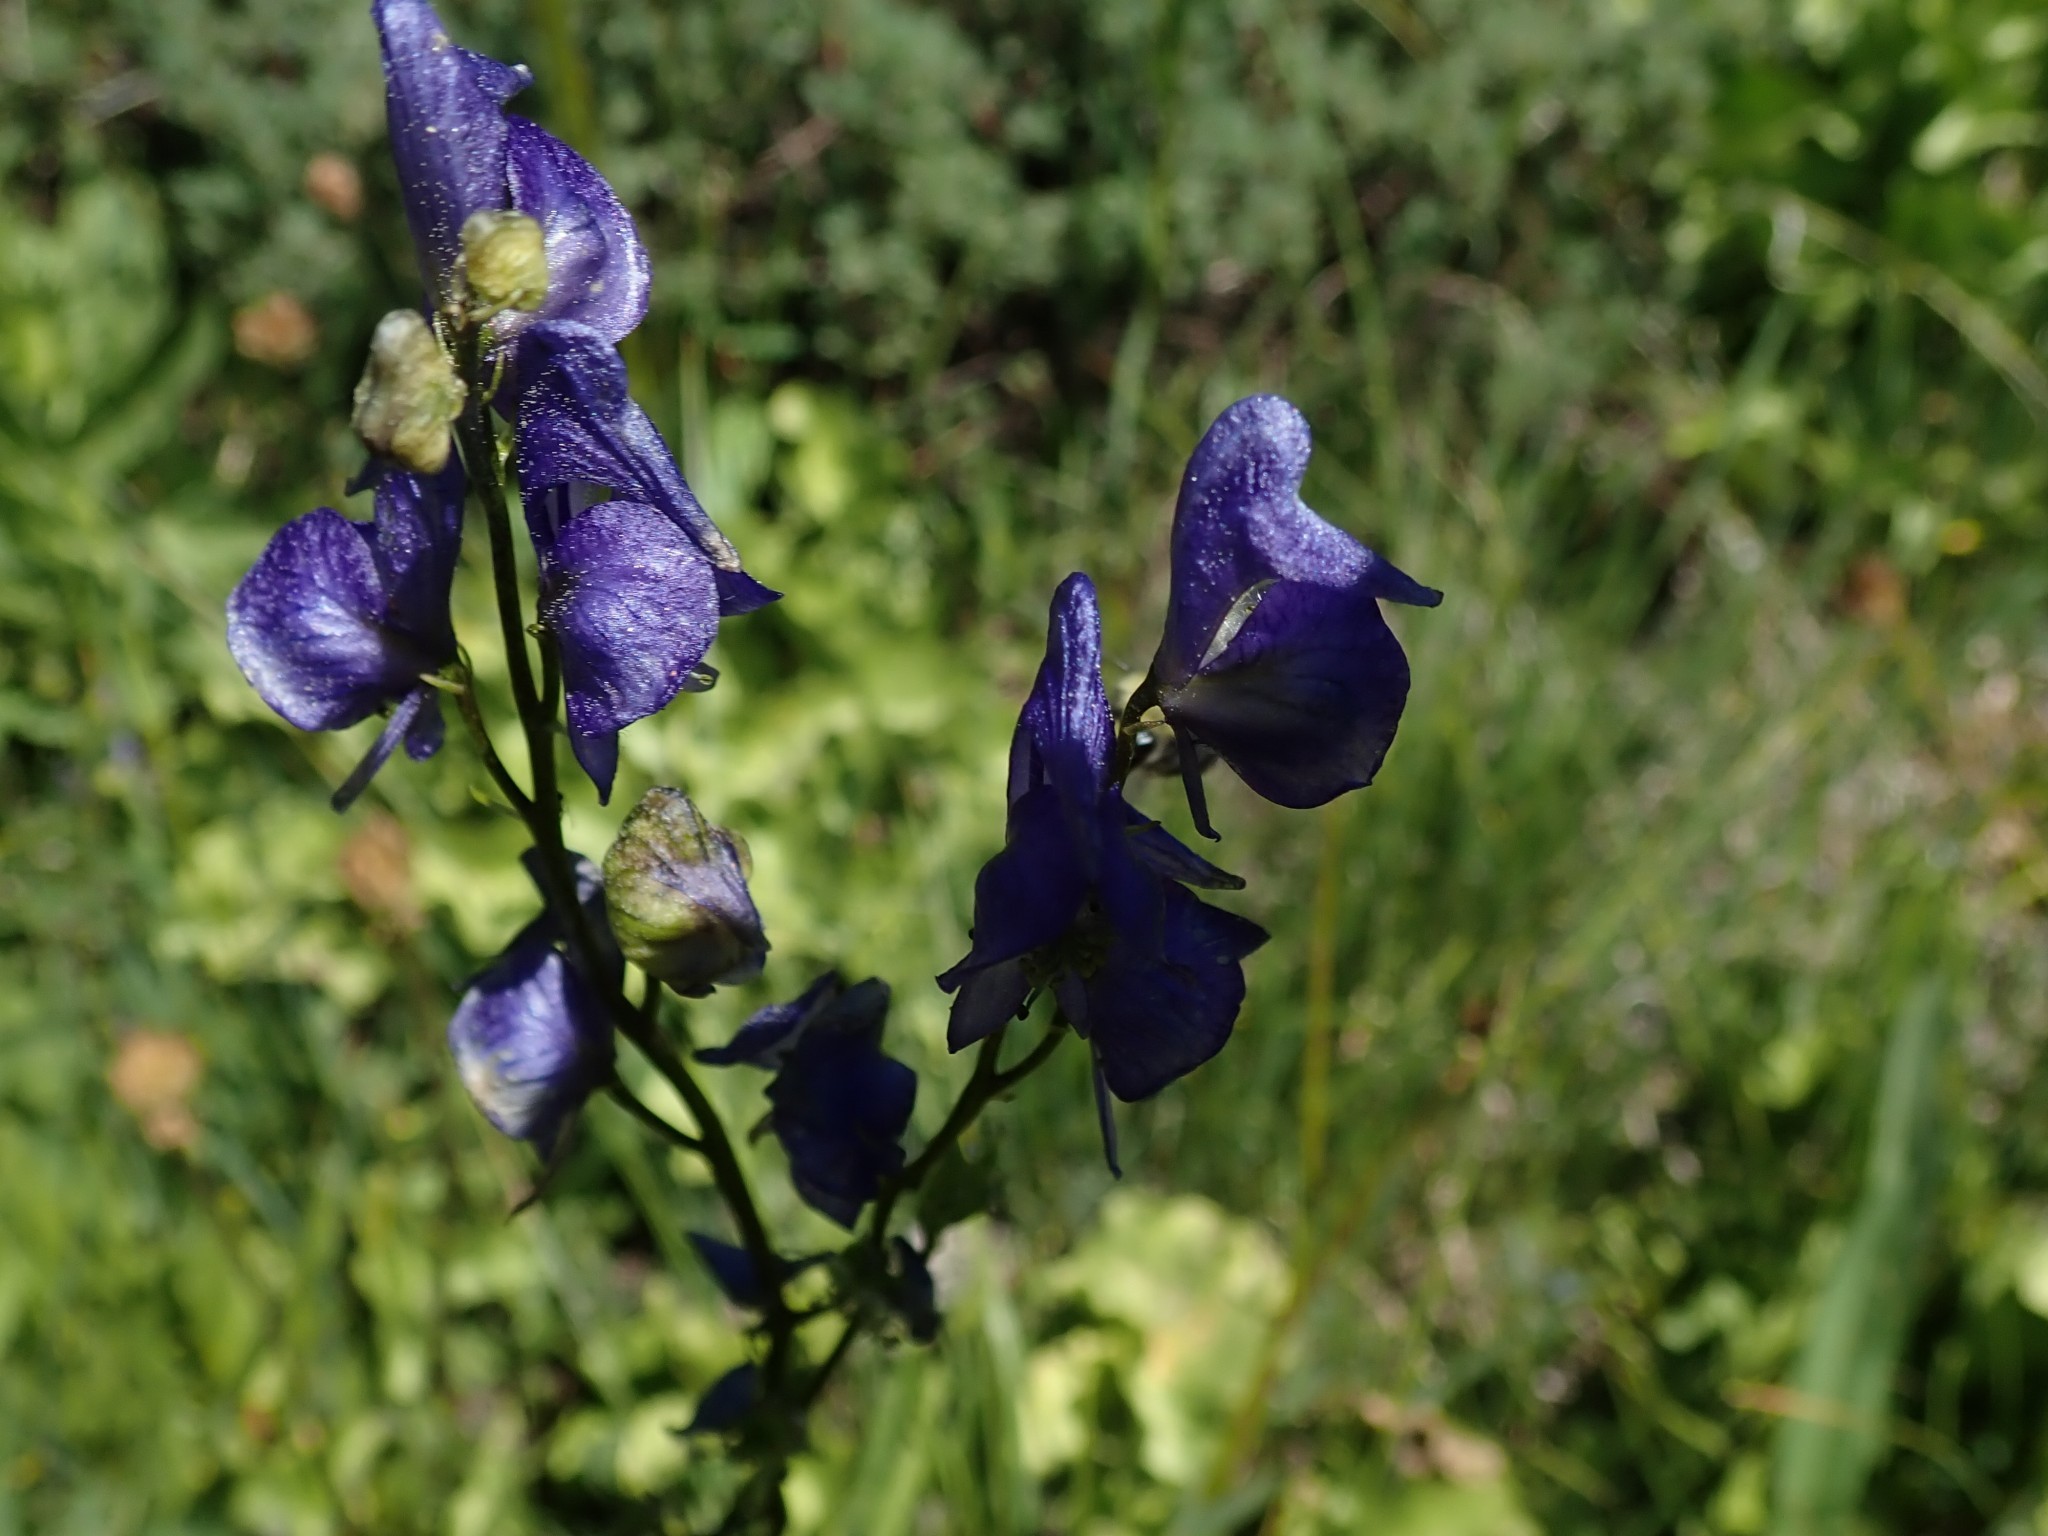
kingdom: Plantae
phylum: Tracheophyta
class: Magnoliopsida
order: Ranunculales
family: Ranunculaceae
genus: Aconitum
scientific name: Aconitum columbianum
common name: Columbia aconite
